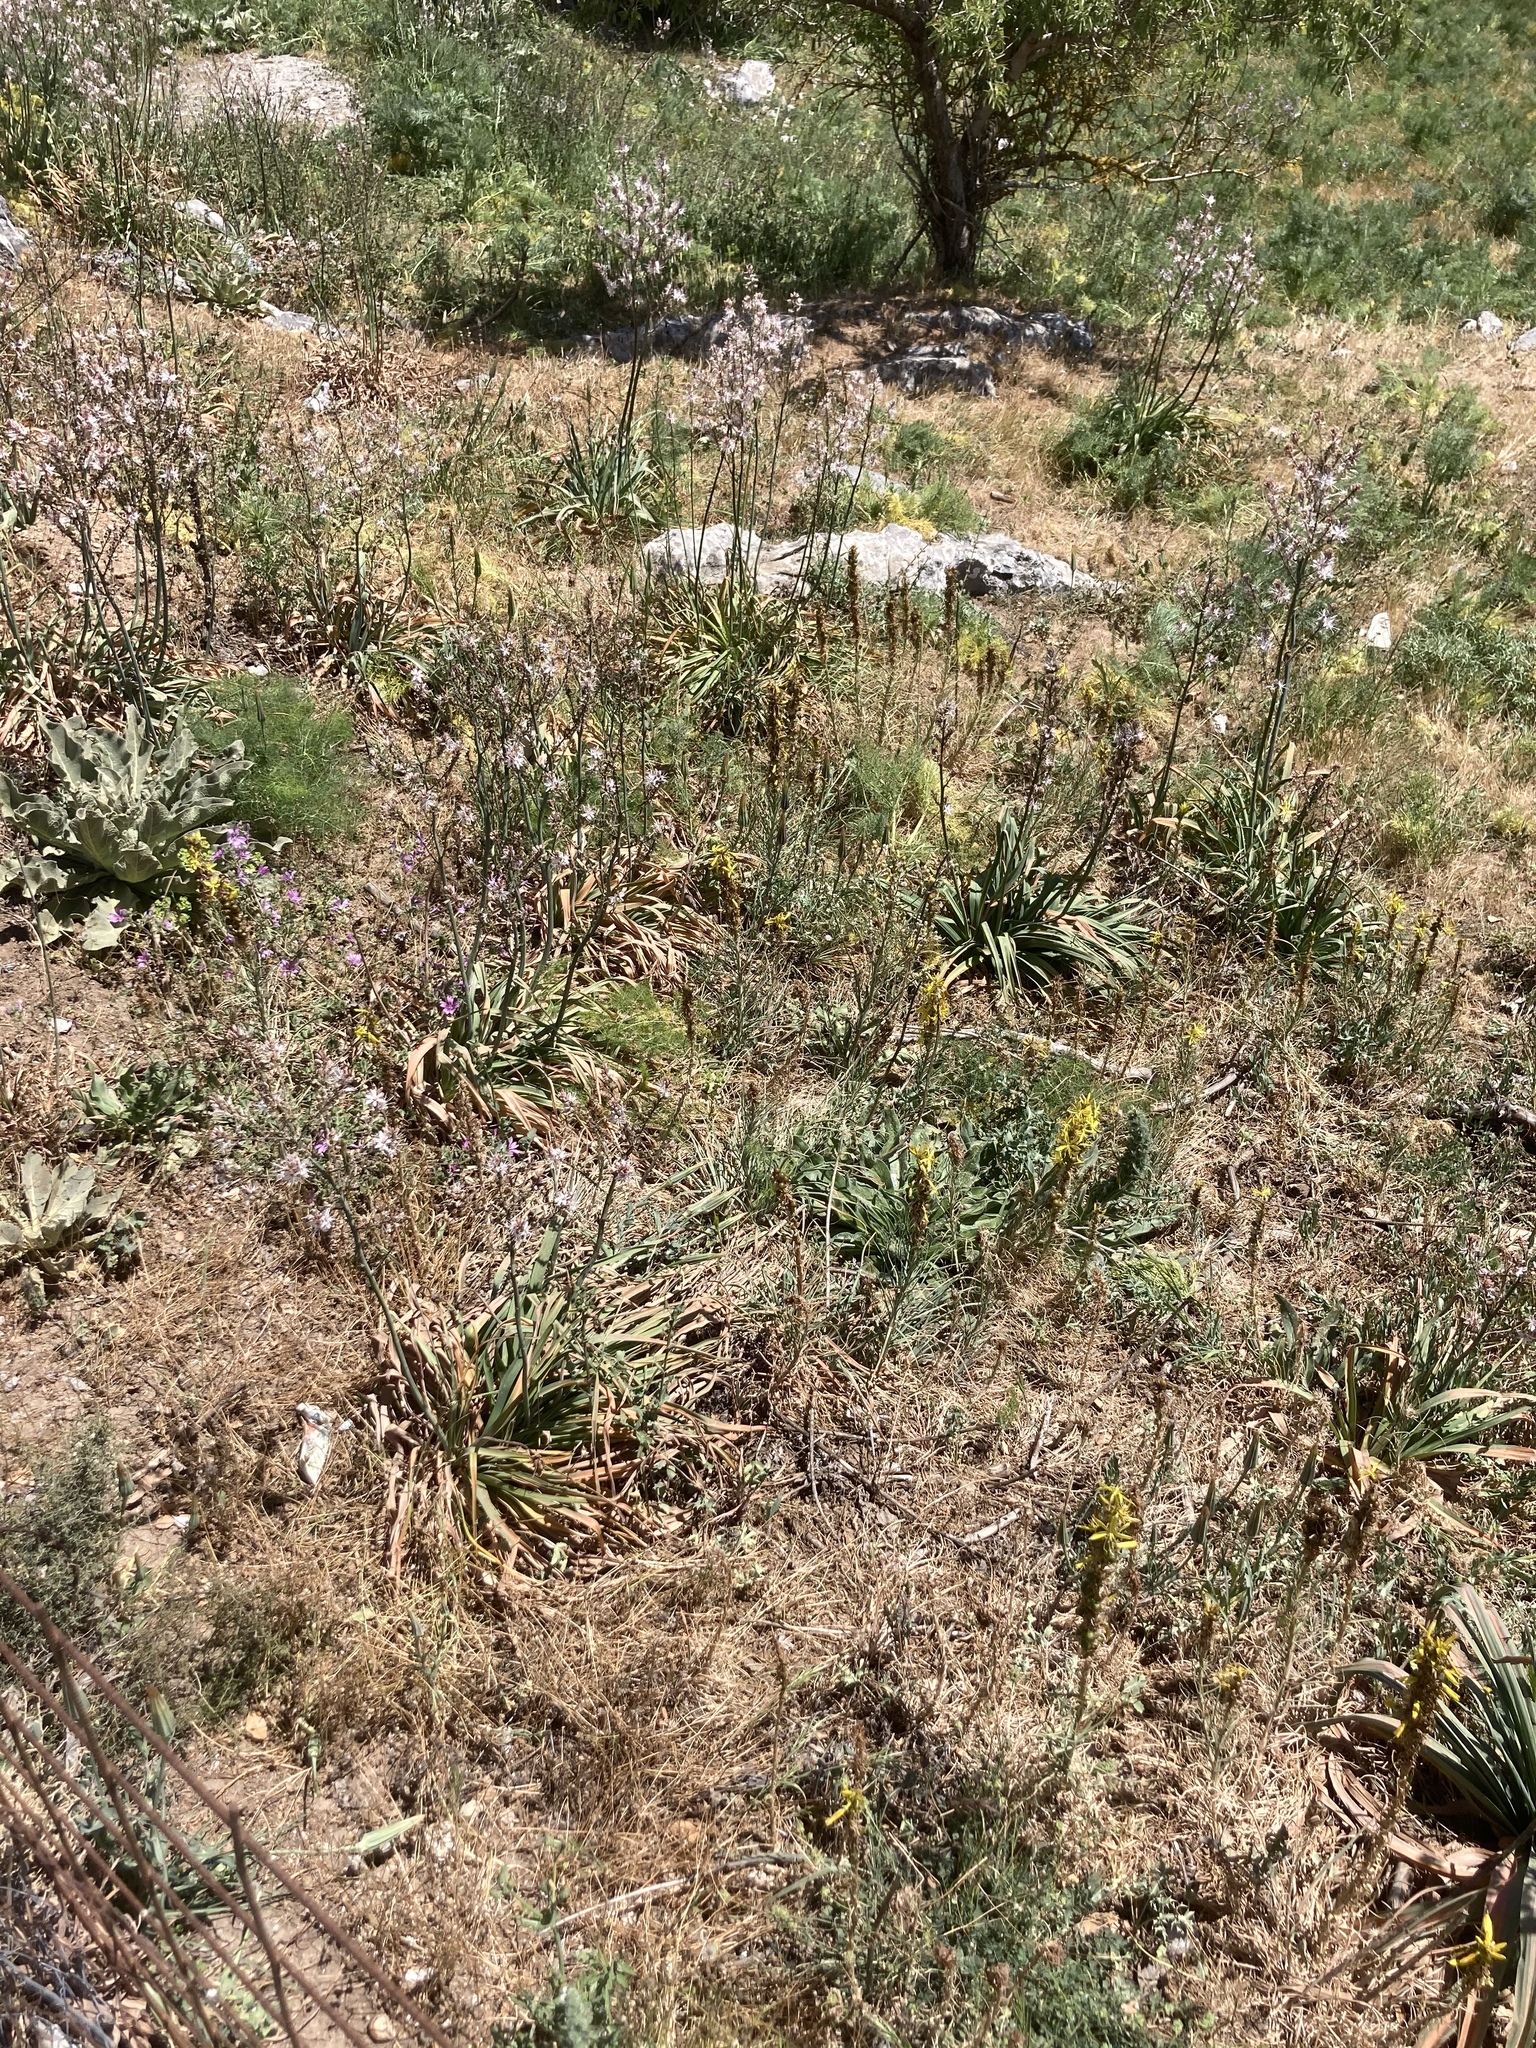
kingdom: Plantae
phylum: Tracheophyta
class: Liliopsida
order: Asparagales
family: Asphodelaceae
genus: Asphodeline
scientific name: Asphodeline lutea
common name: Yellow asphodel
